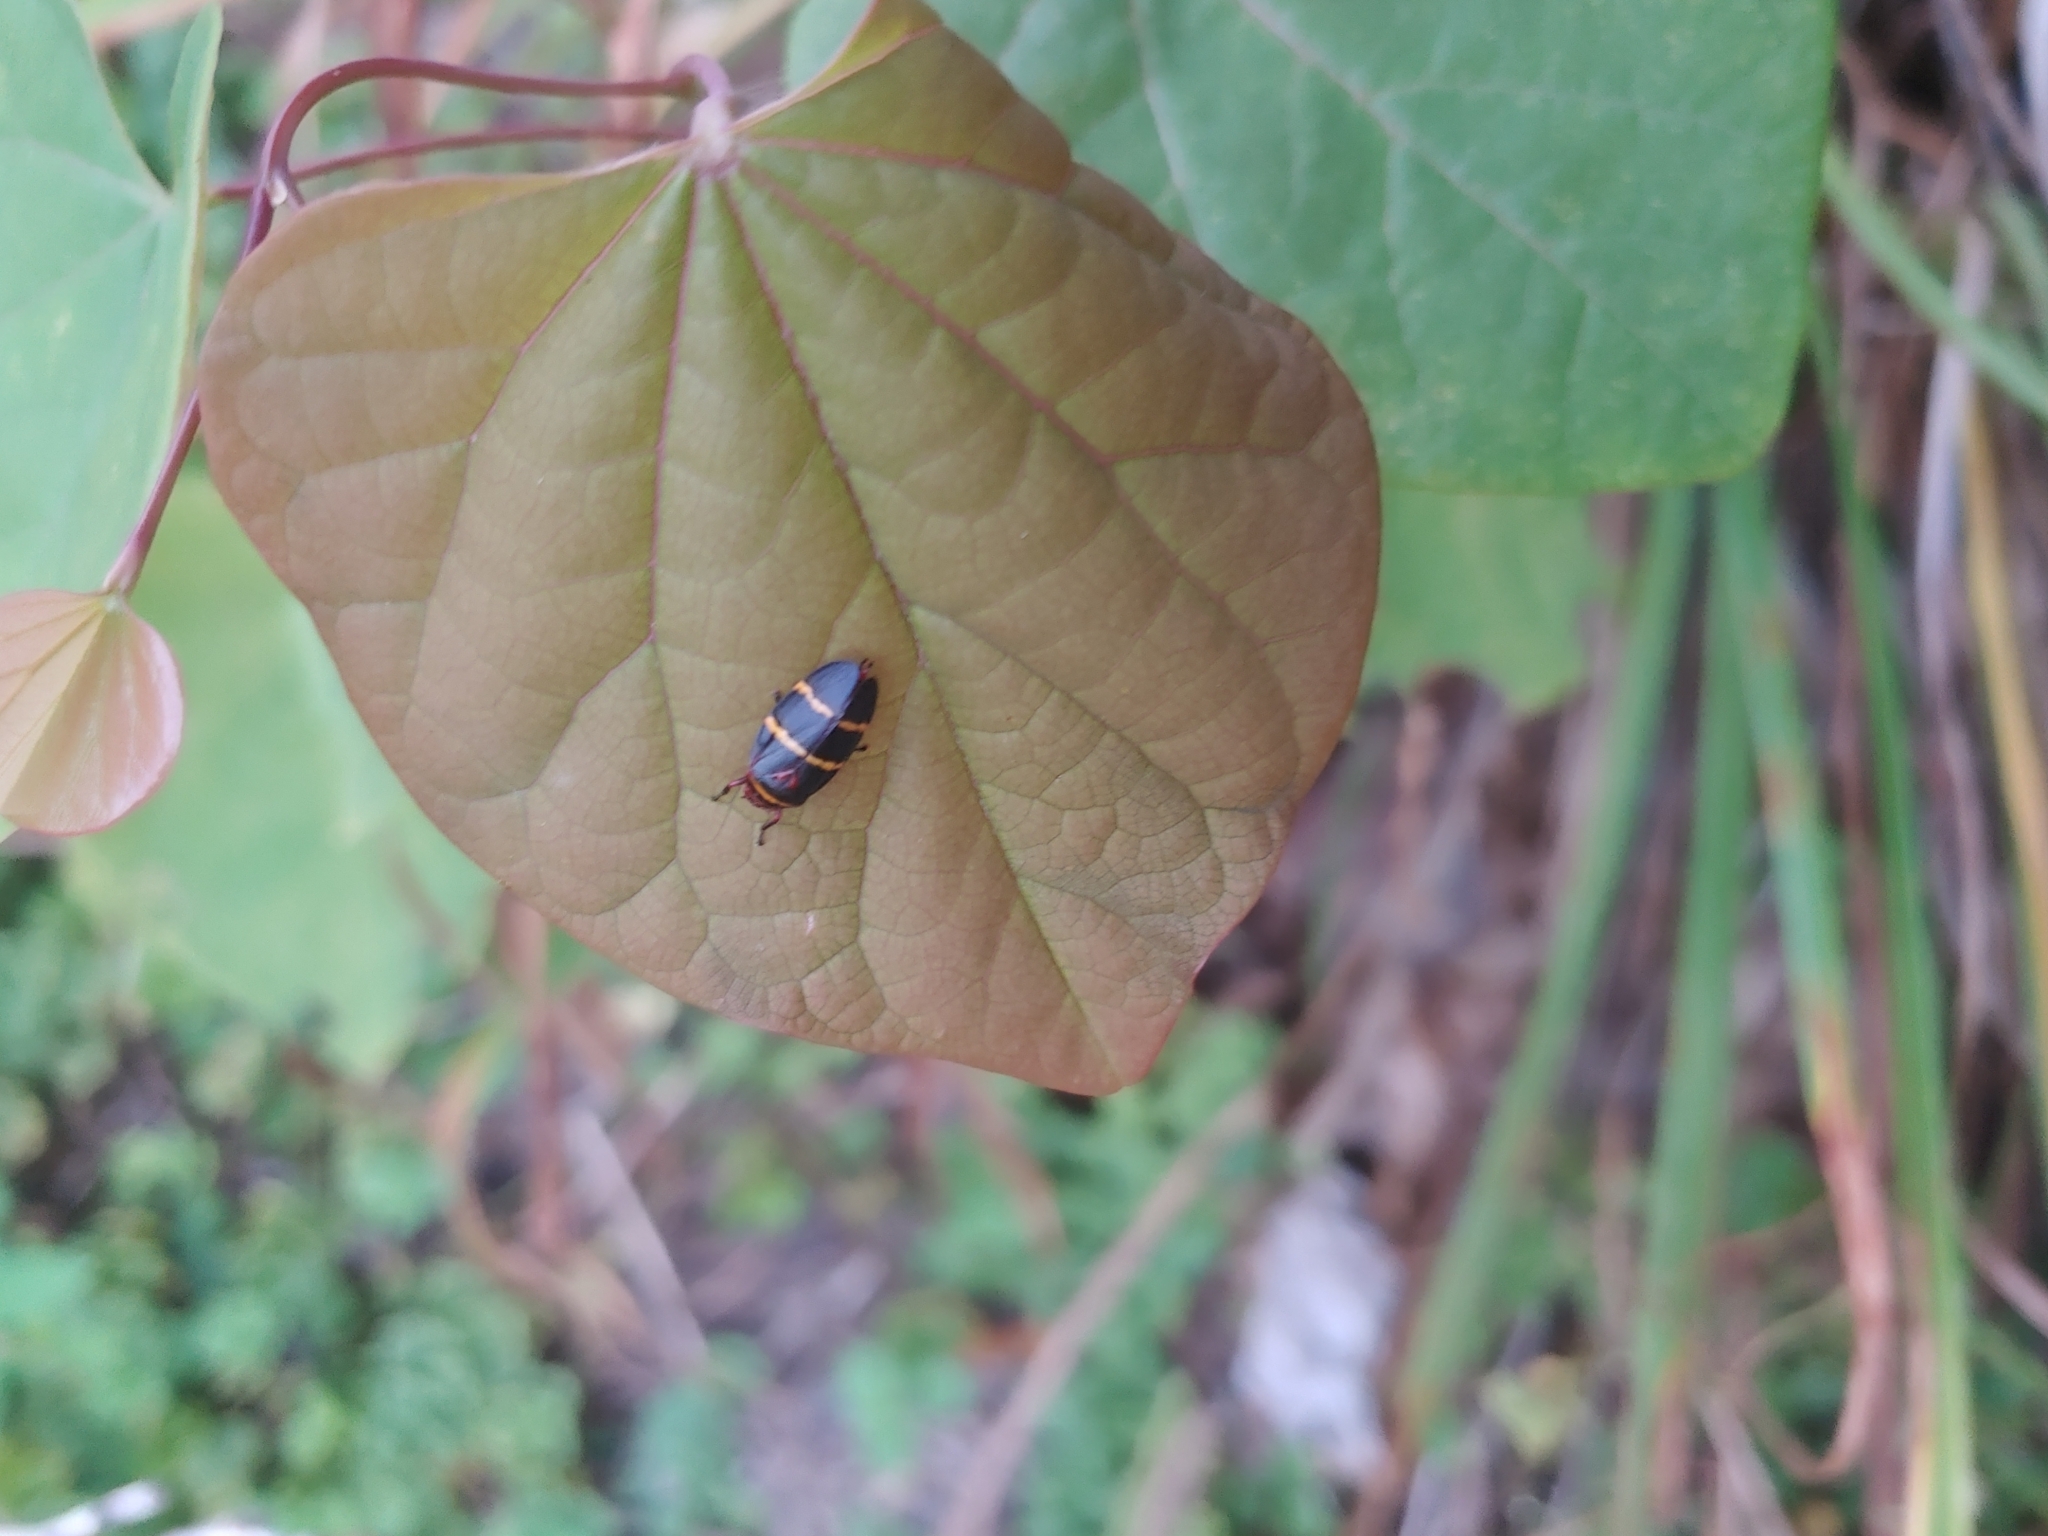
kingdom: Animalia
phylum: Arthropoda
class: Insecta
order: Hemiptera
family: Cercopidae
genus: Prosapia
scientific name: Prosapia bicincta
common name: Twolined spittlebug
